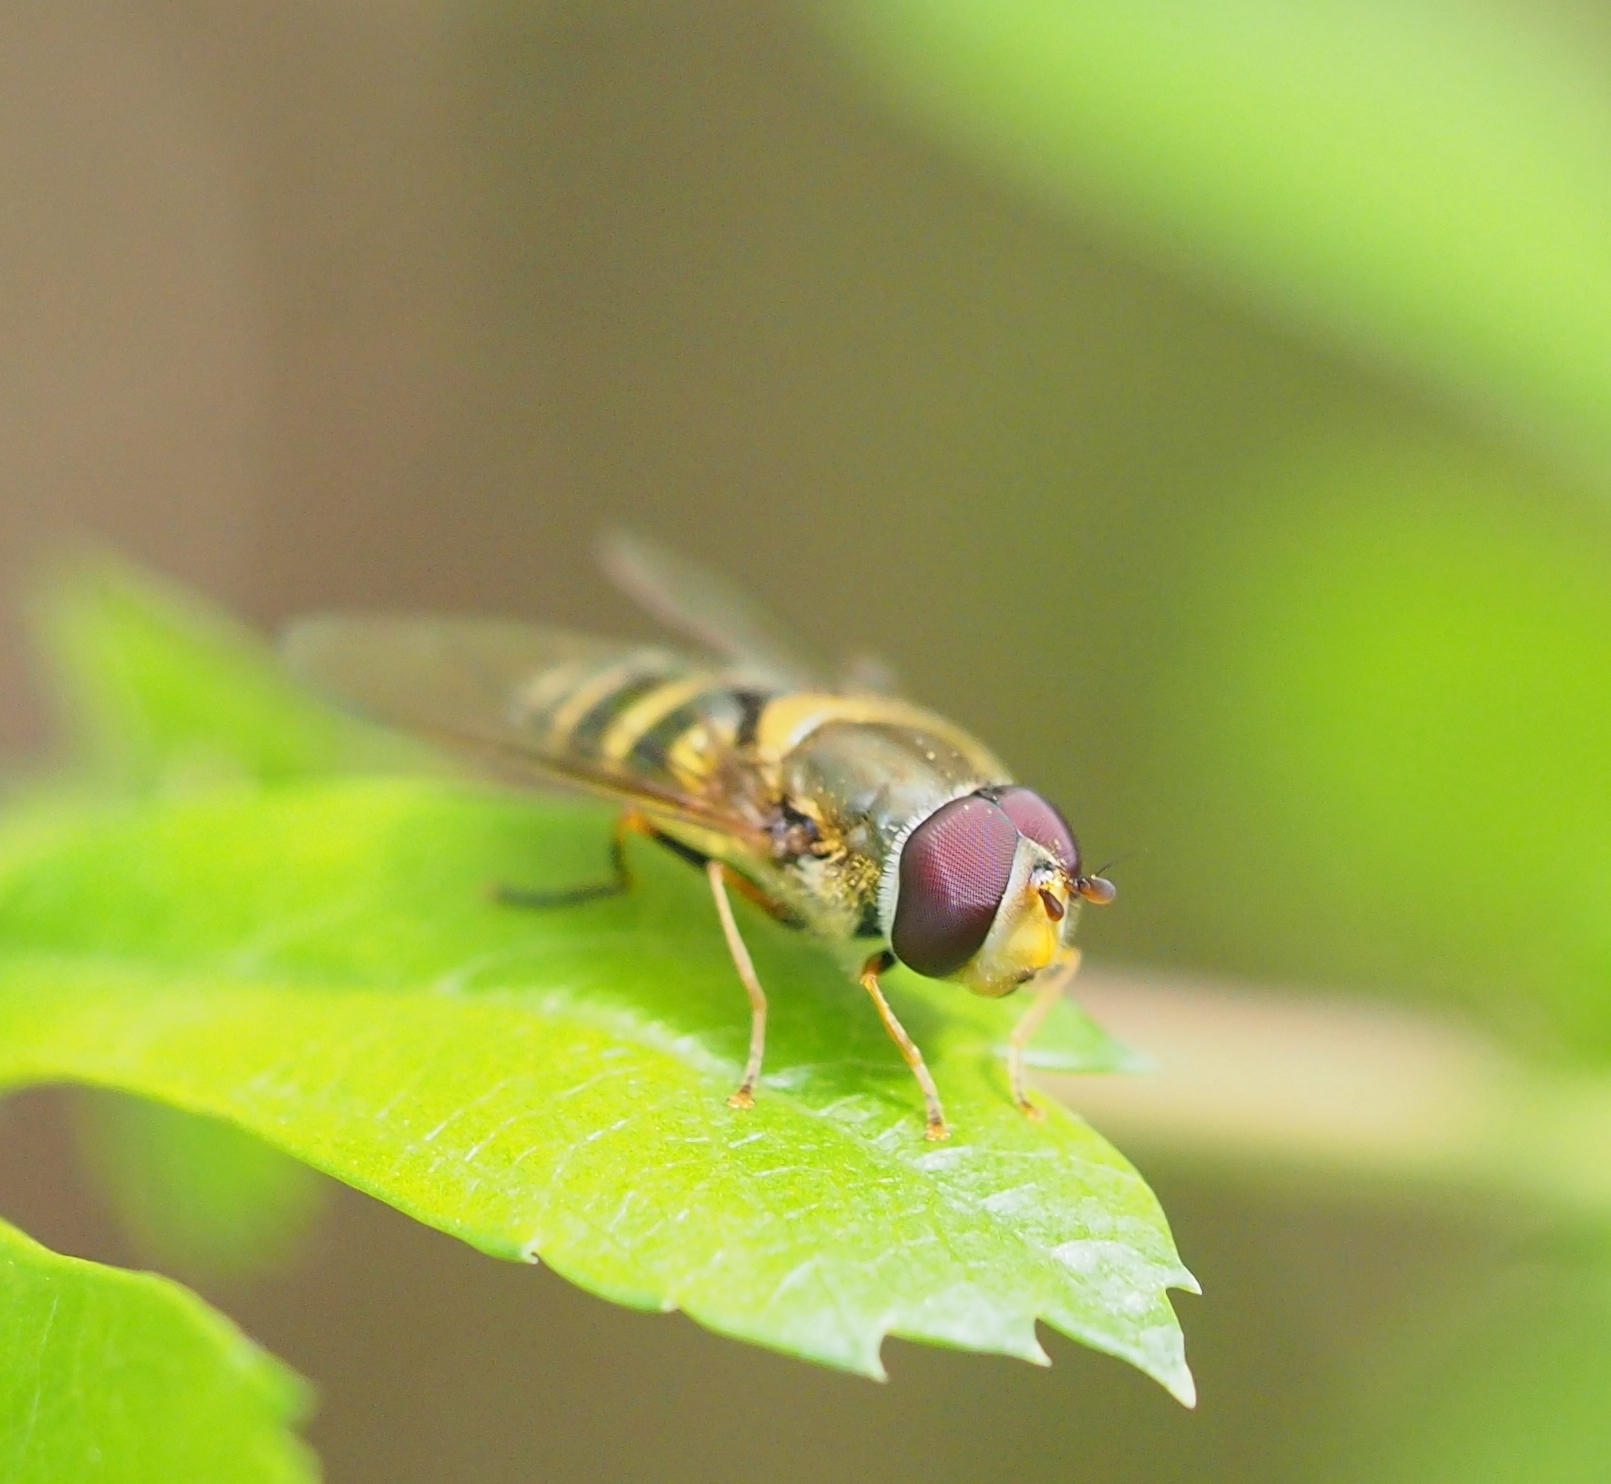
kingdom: Animalia
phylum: Arthropoda
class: Insecta
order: Diptera
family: Syrphidae
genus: Syrphus
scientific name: Syrphus vitripennis
